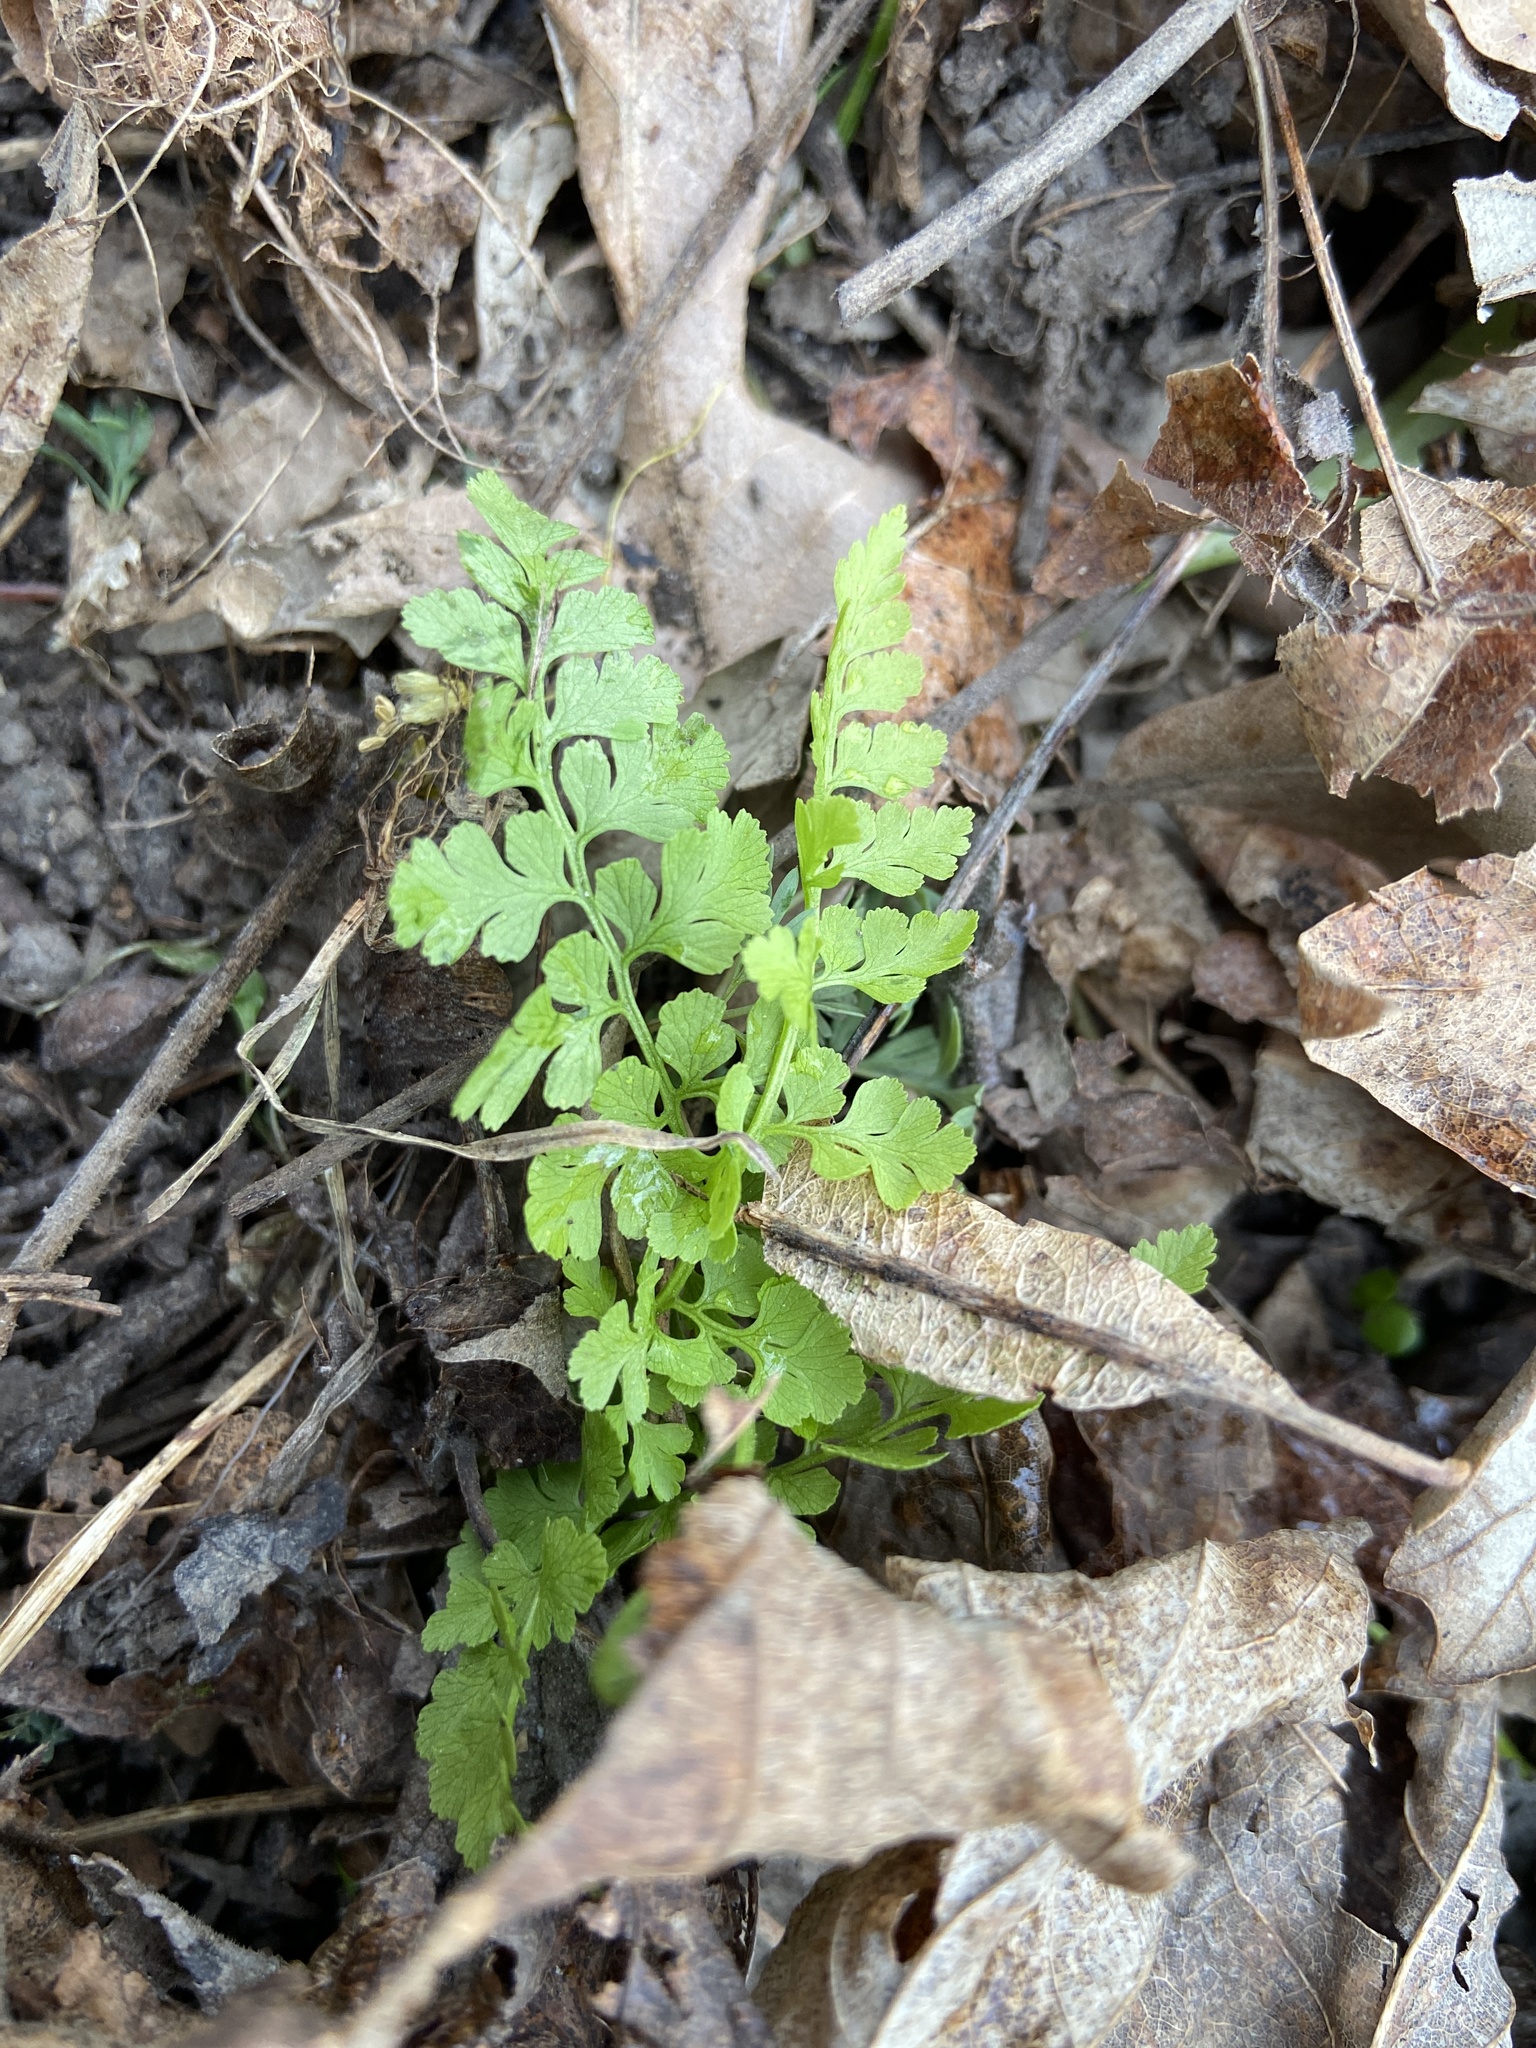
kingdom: Plantae
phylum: Tracheophyta
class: Polypodiopsida
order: Polypodiales
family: Cystopteridaceae
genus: Cystopteris
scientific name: Cystopteris protrusa
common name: Lowland brittle fern
